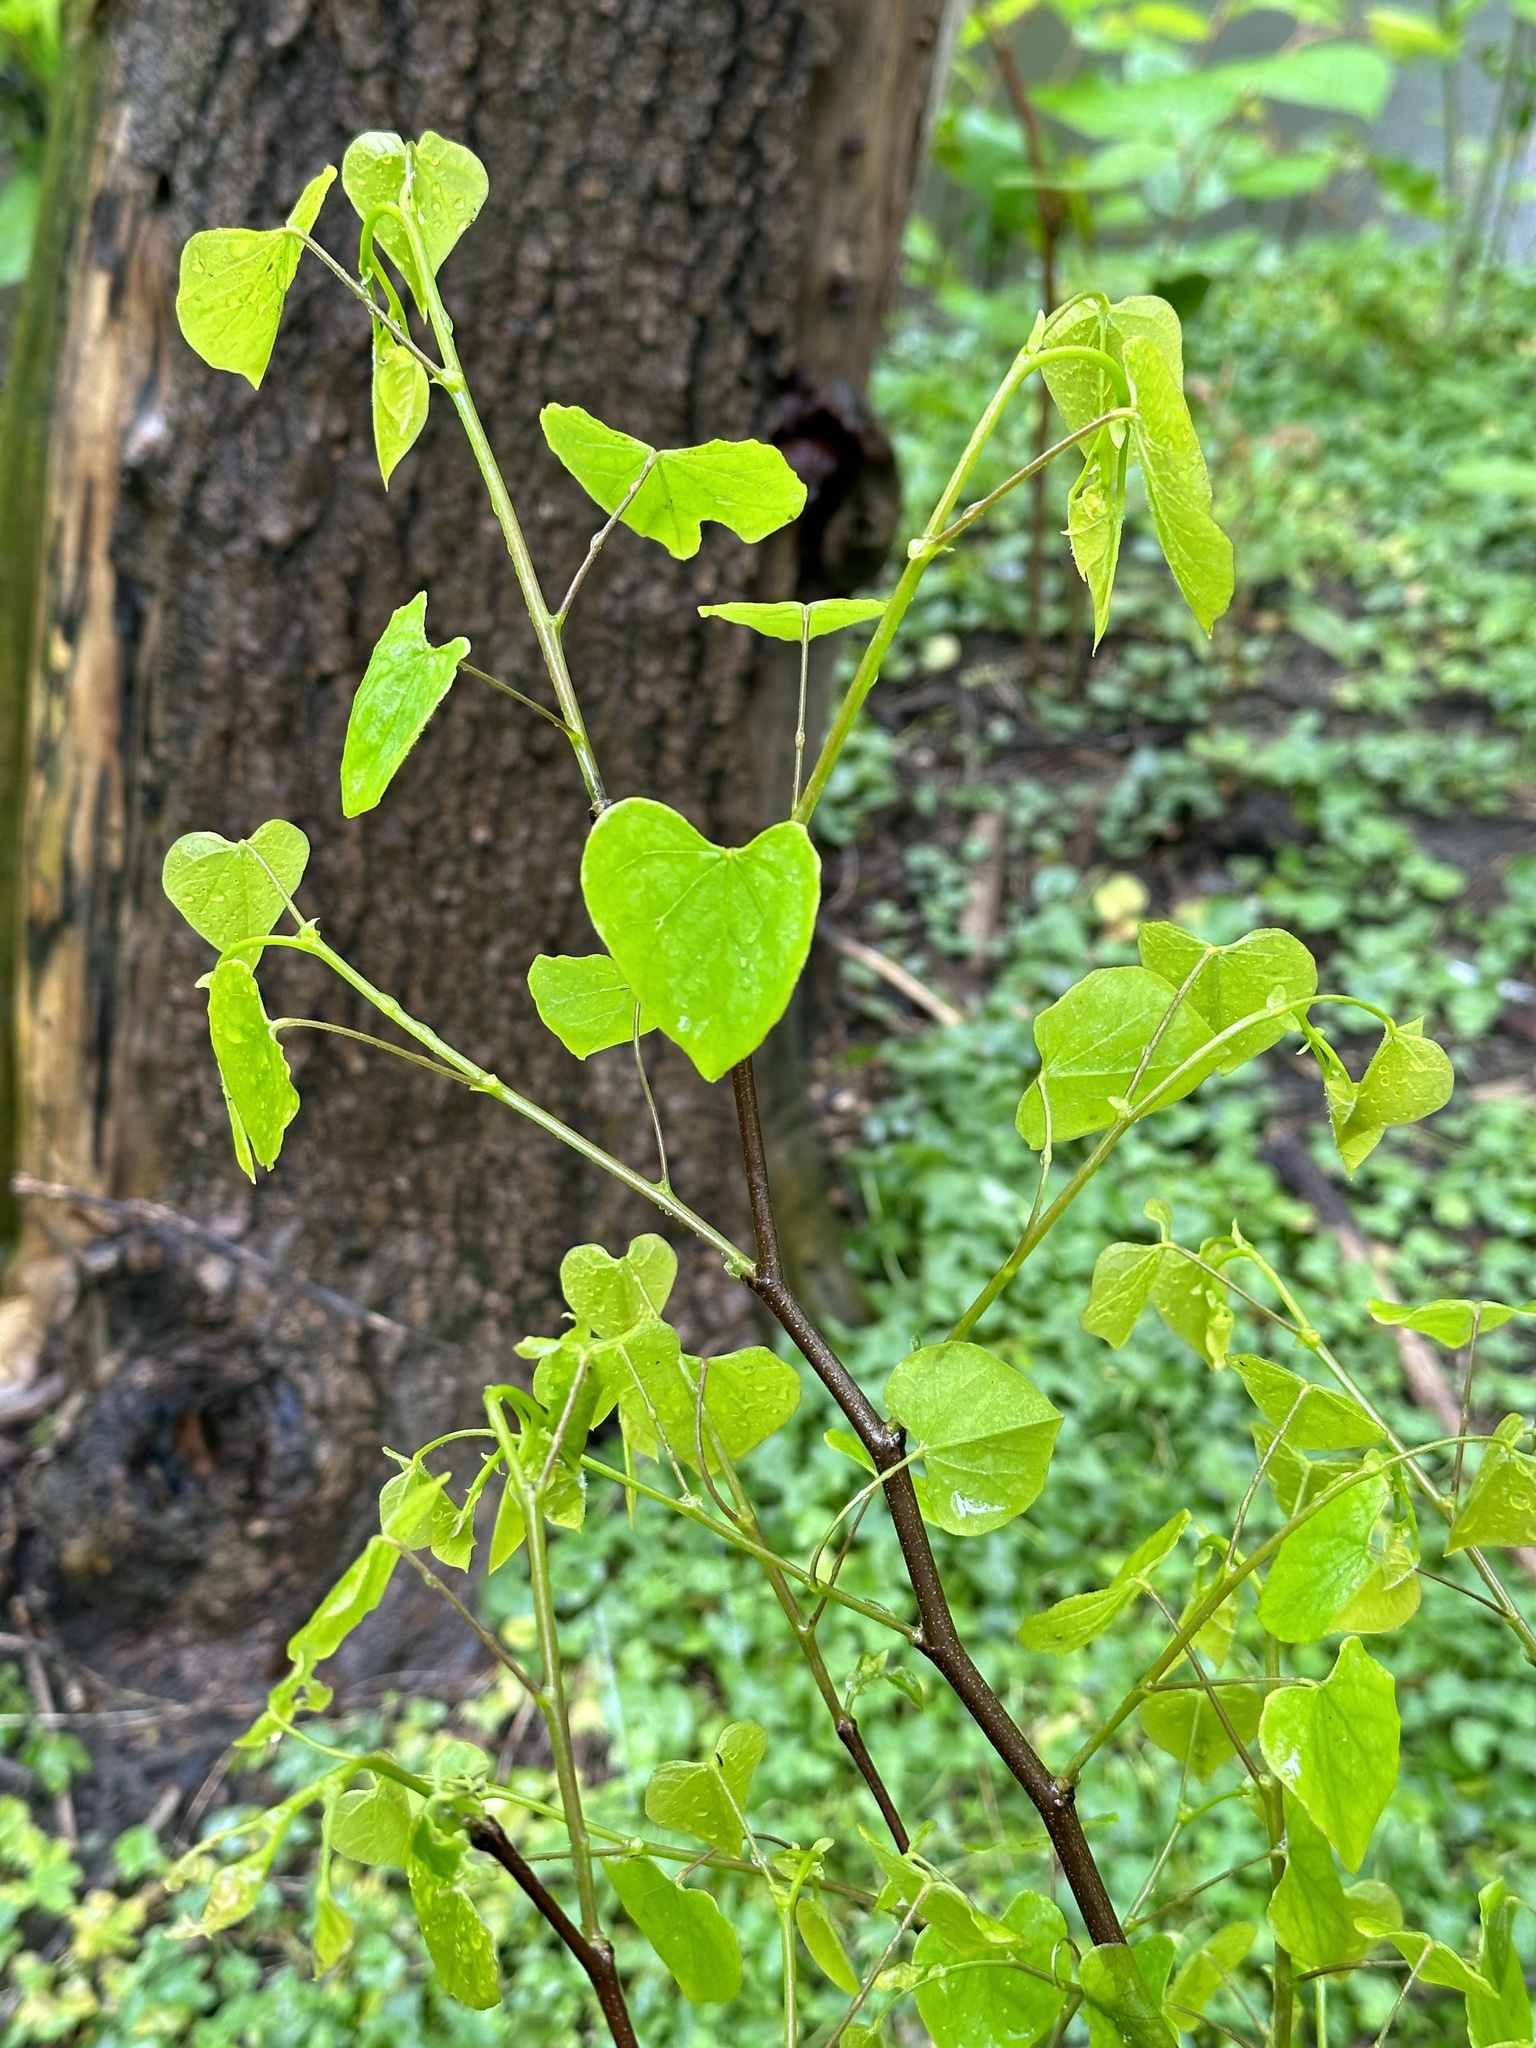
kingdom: Plantae
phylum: Tracheophyta
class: Magnoliopsida
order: Fabales
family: Fabaceae
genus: Cercis
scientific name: Cercis canadensis
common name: Eastern redbud
